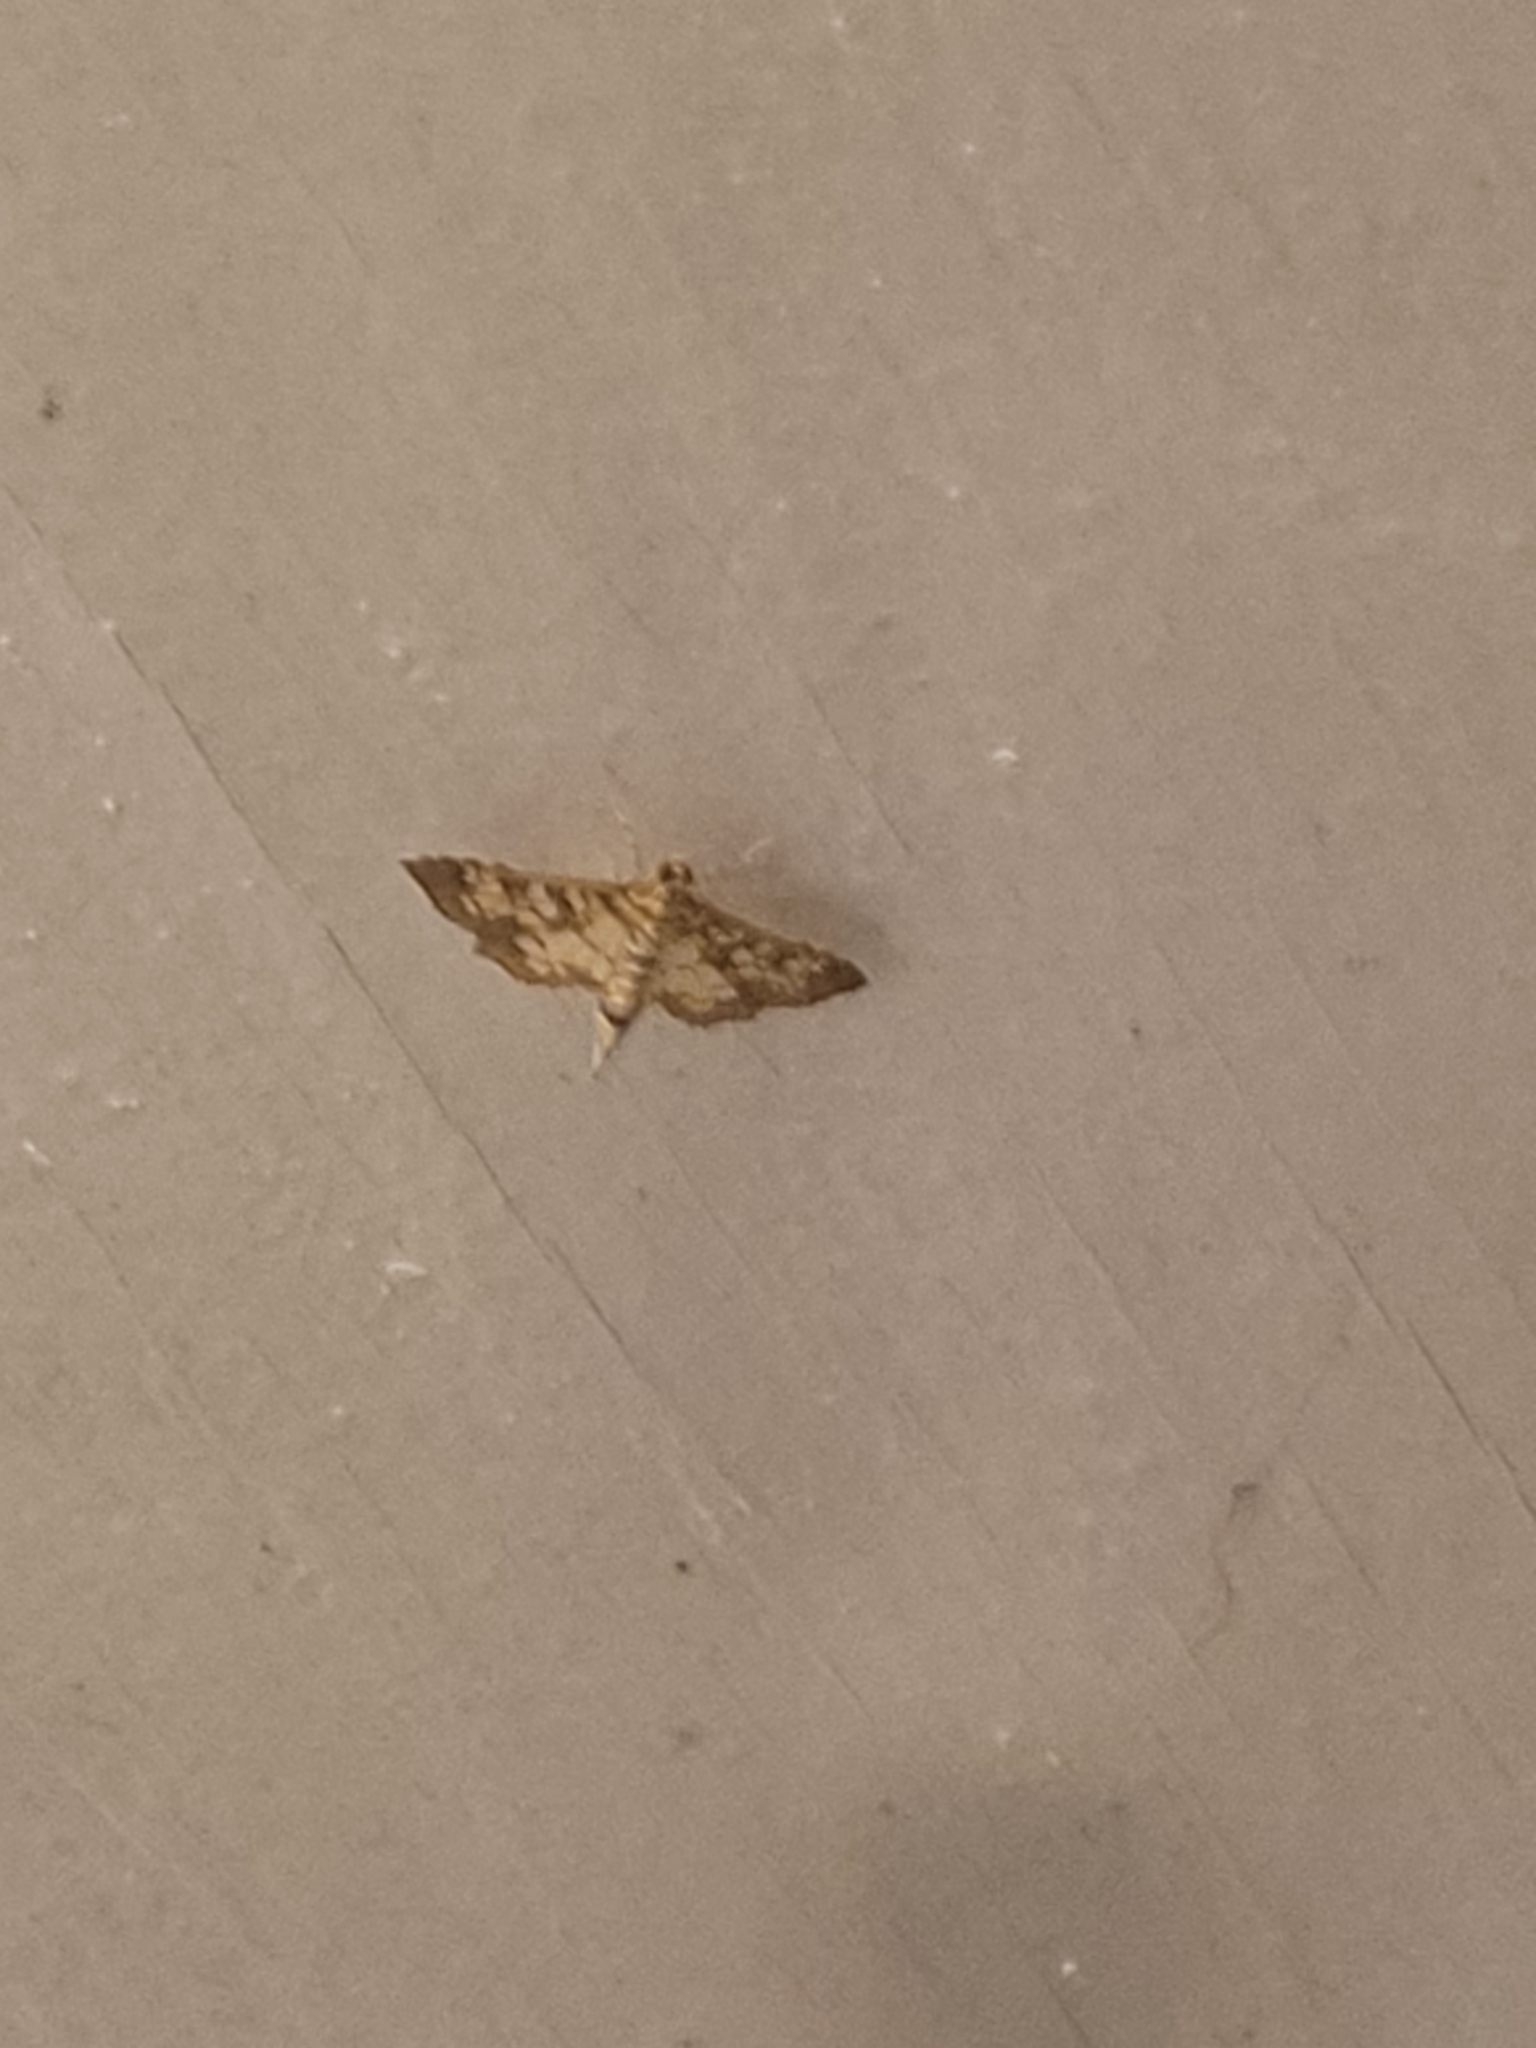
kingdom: Animalia
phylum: Arthropoda
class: Insecta
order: Lepidoptera
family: Crambidae
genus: Samea
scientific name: Samea ecclesialis
